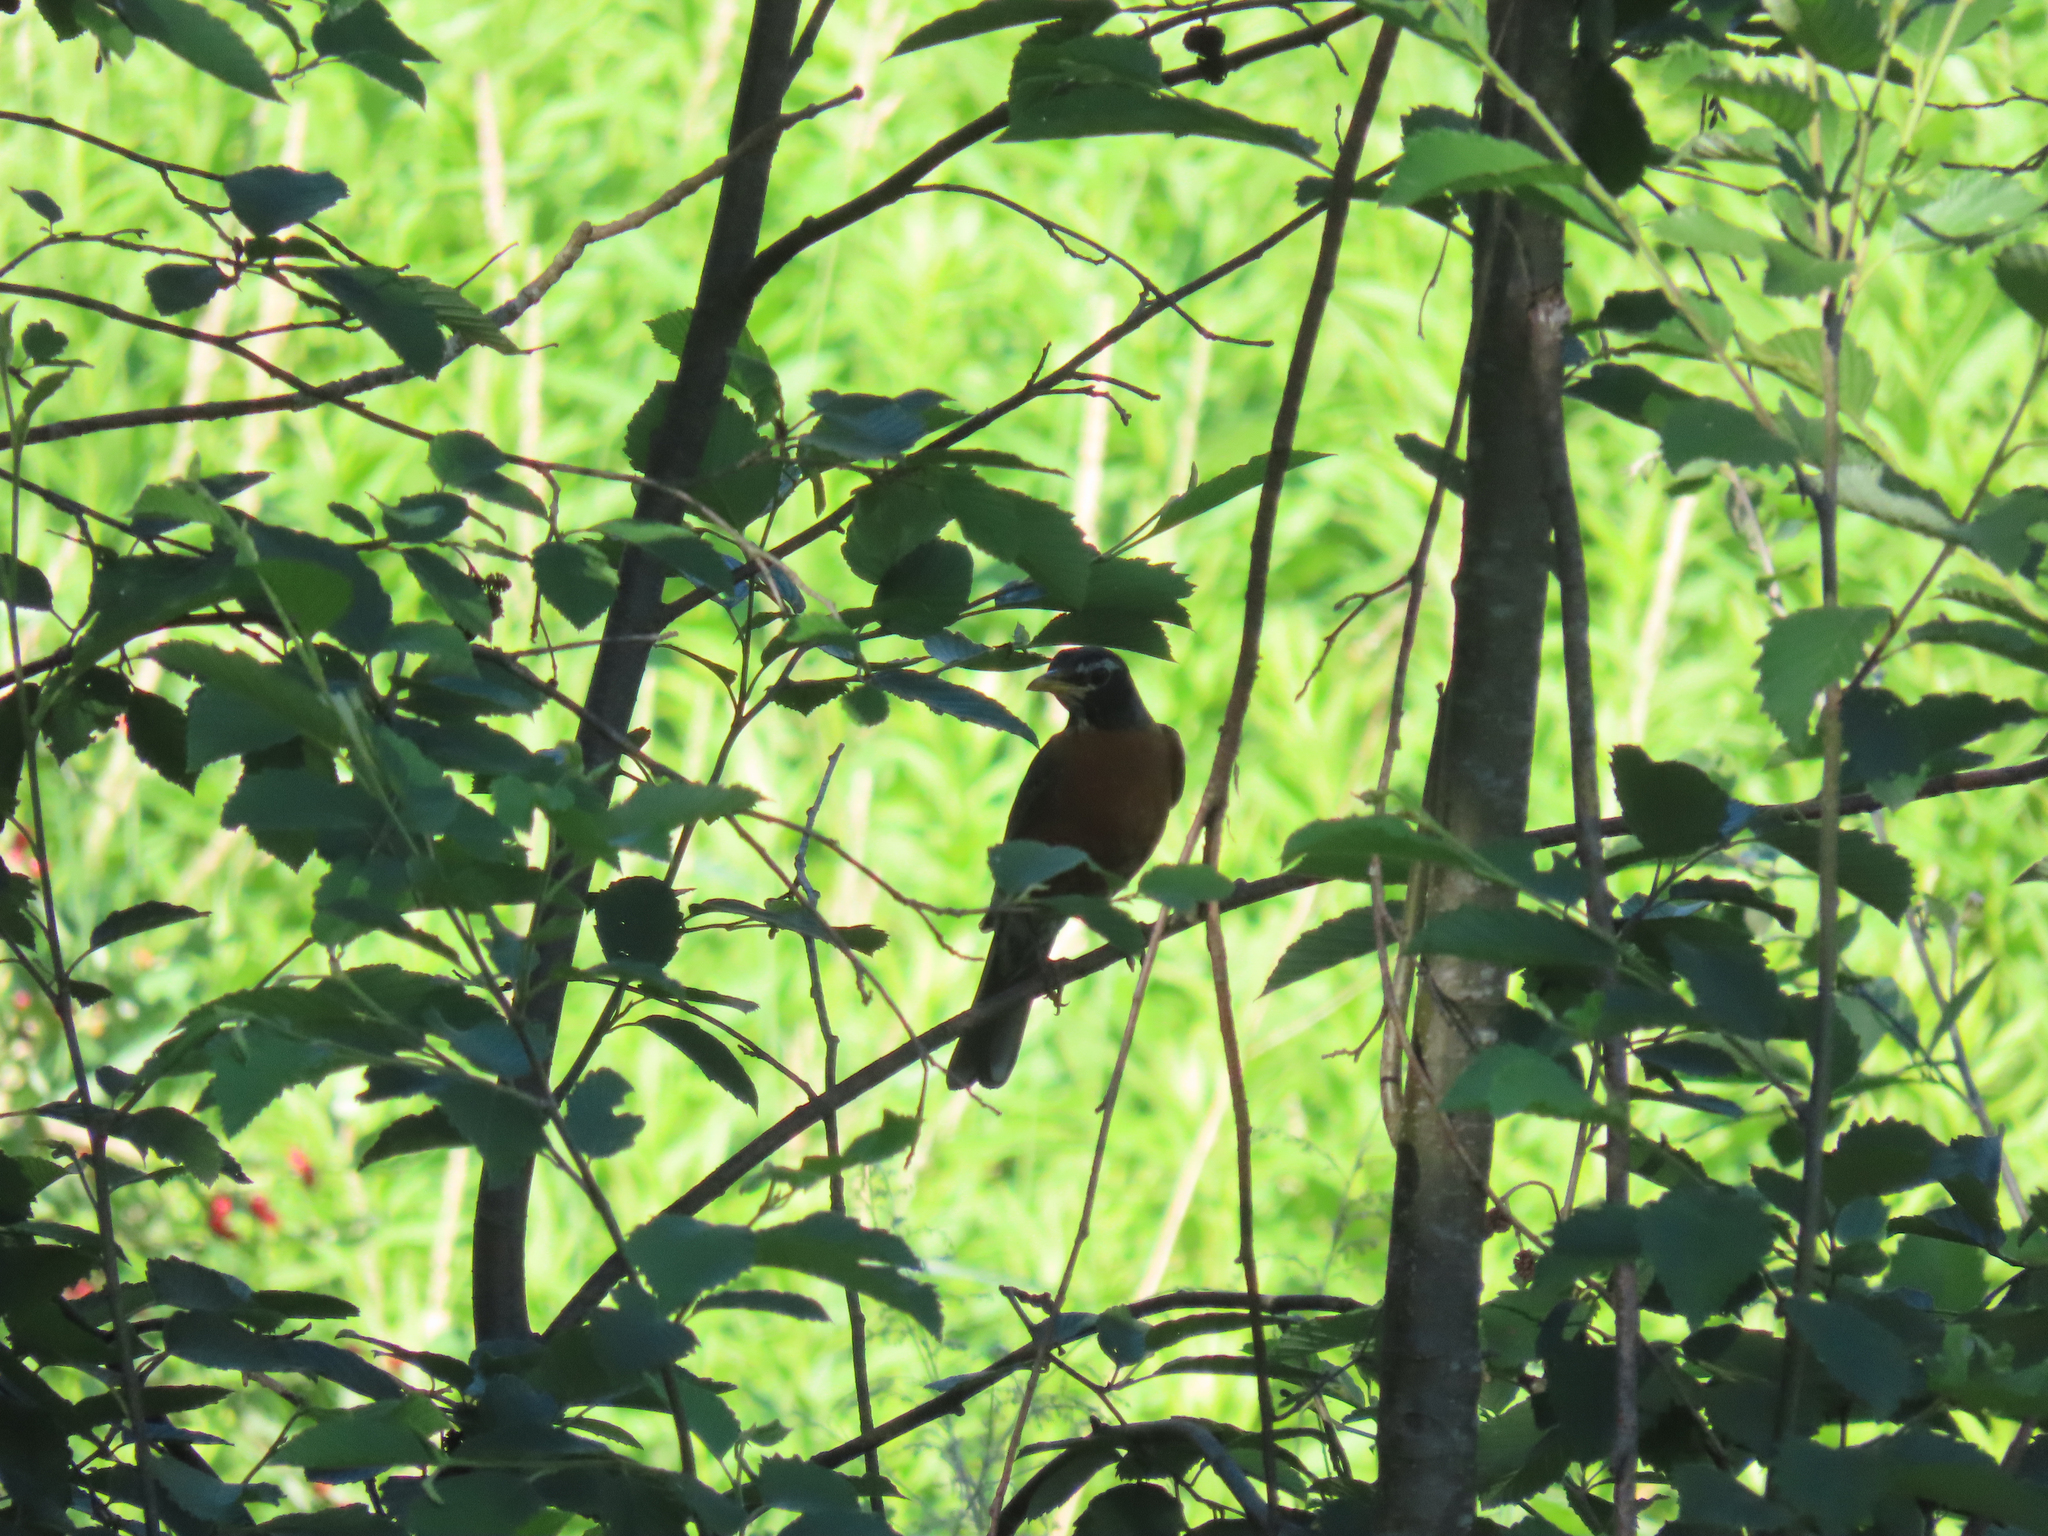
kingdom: Animalia
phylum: Chordata
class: Aves
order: Passeriformes
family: Turdidae
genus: Turdus
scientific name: Turdus migratorius
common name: American robin
